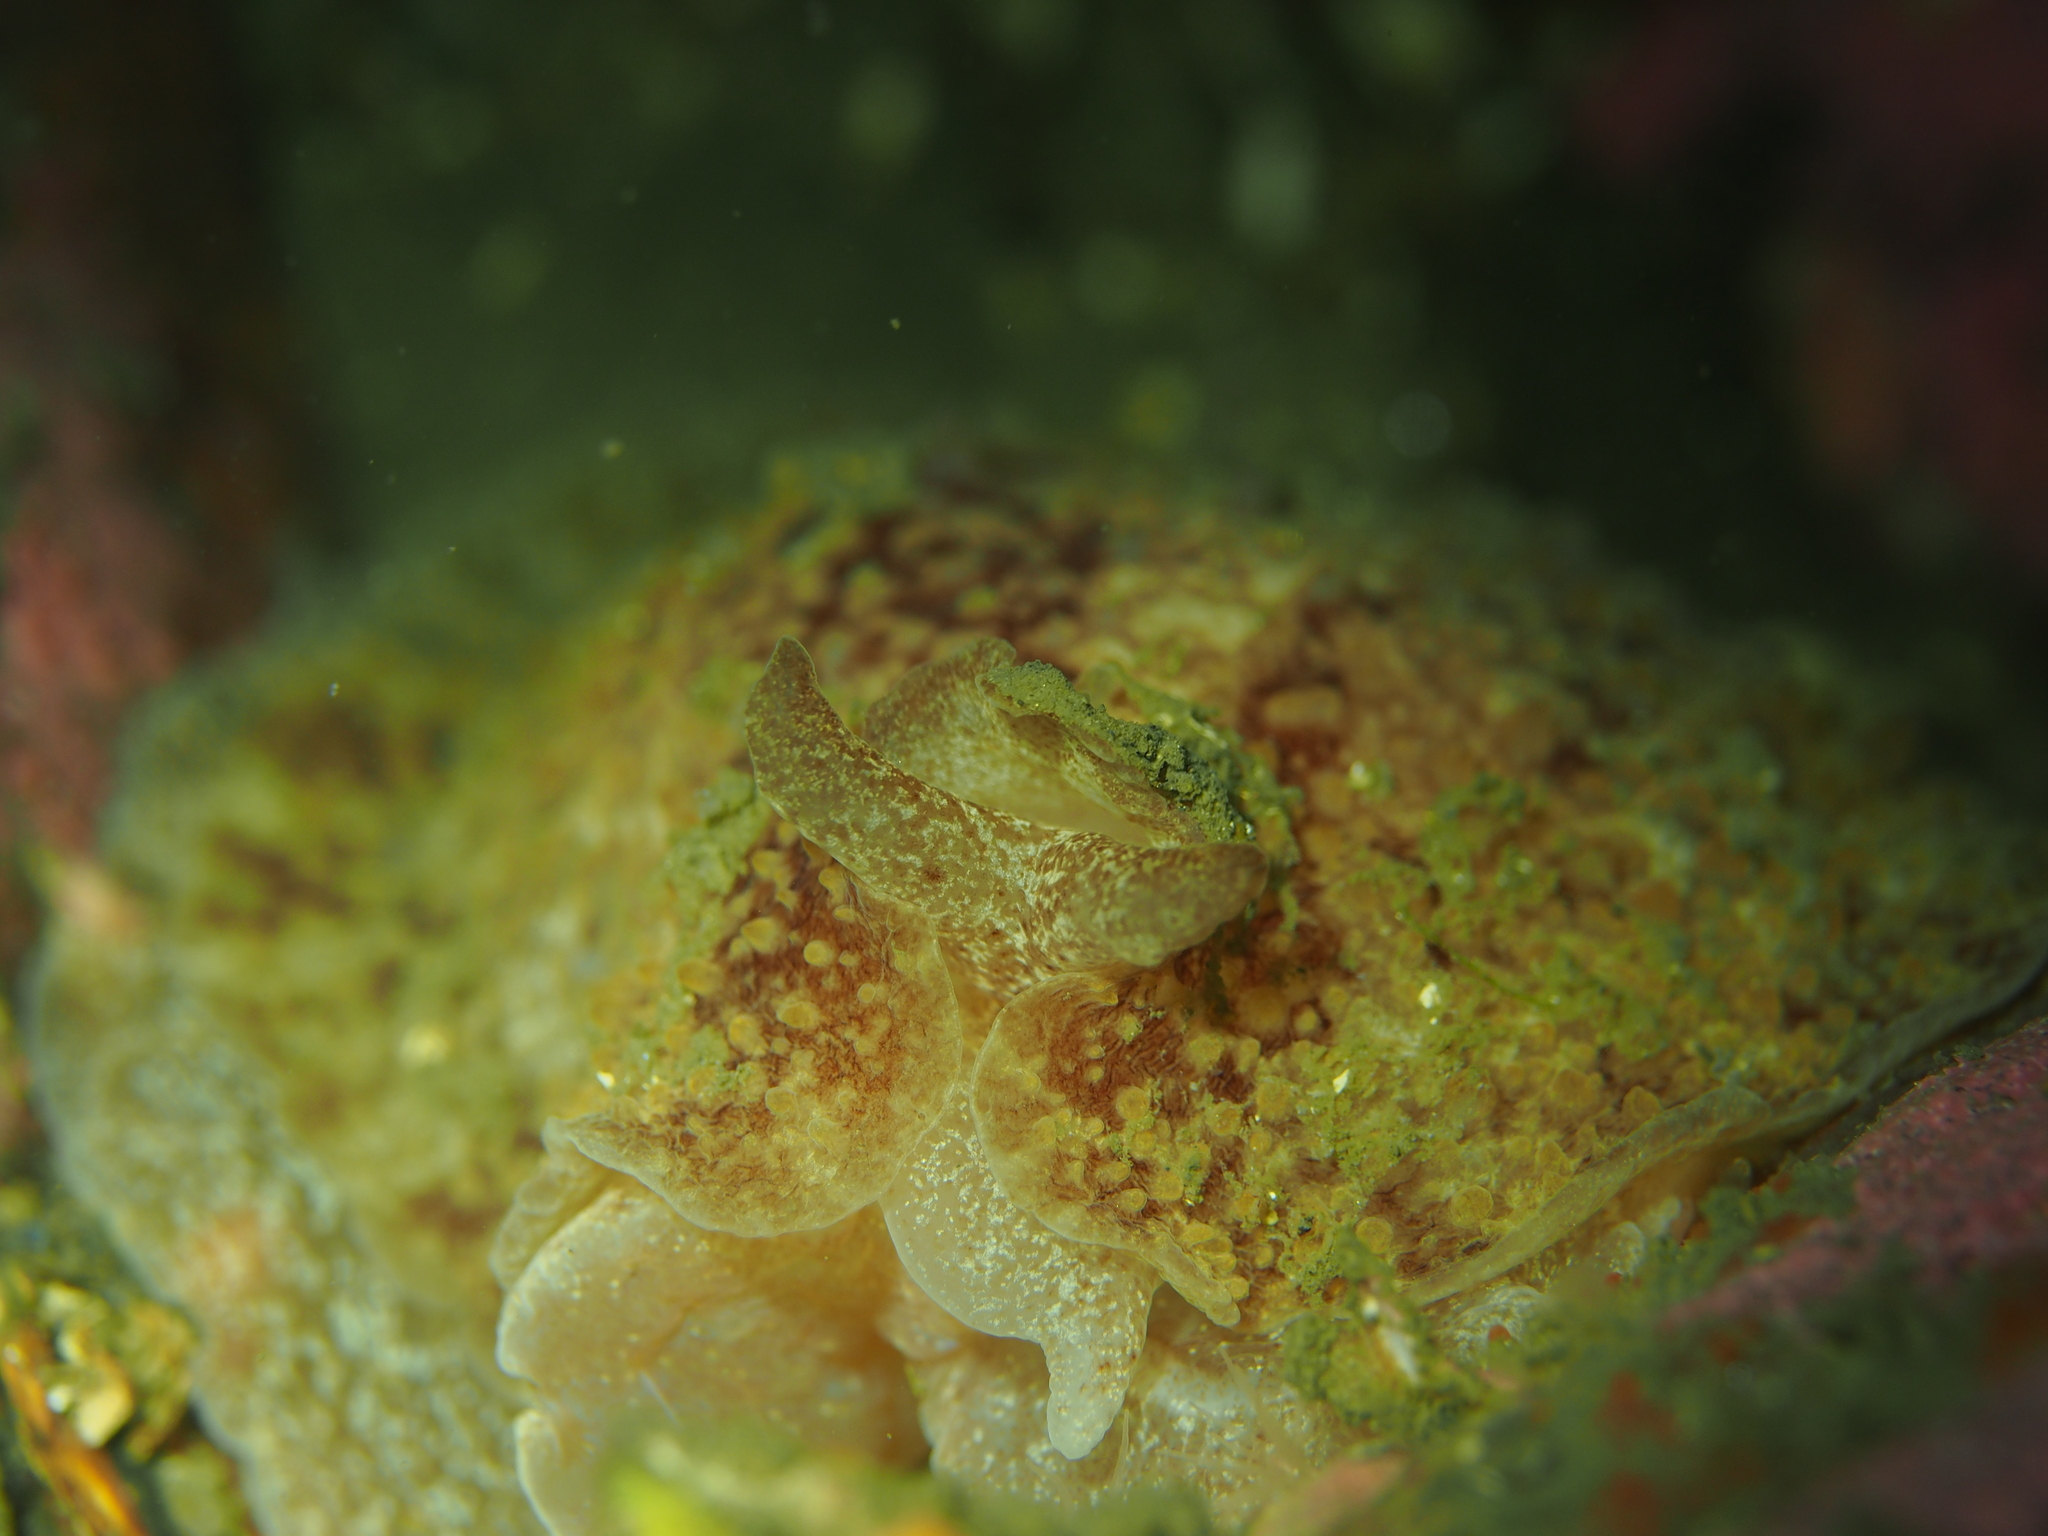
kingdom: Animalia
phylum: Mollusca
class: Gastropoda
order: Pleurobranchida
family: Pleurobranchidae
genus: Pleurobranchus
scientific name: Pleurobranchus membranaceus
